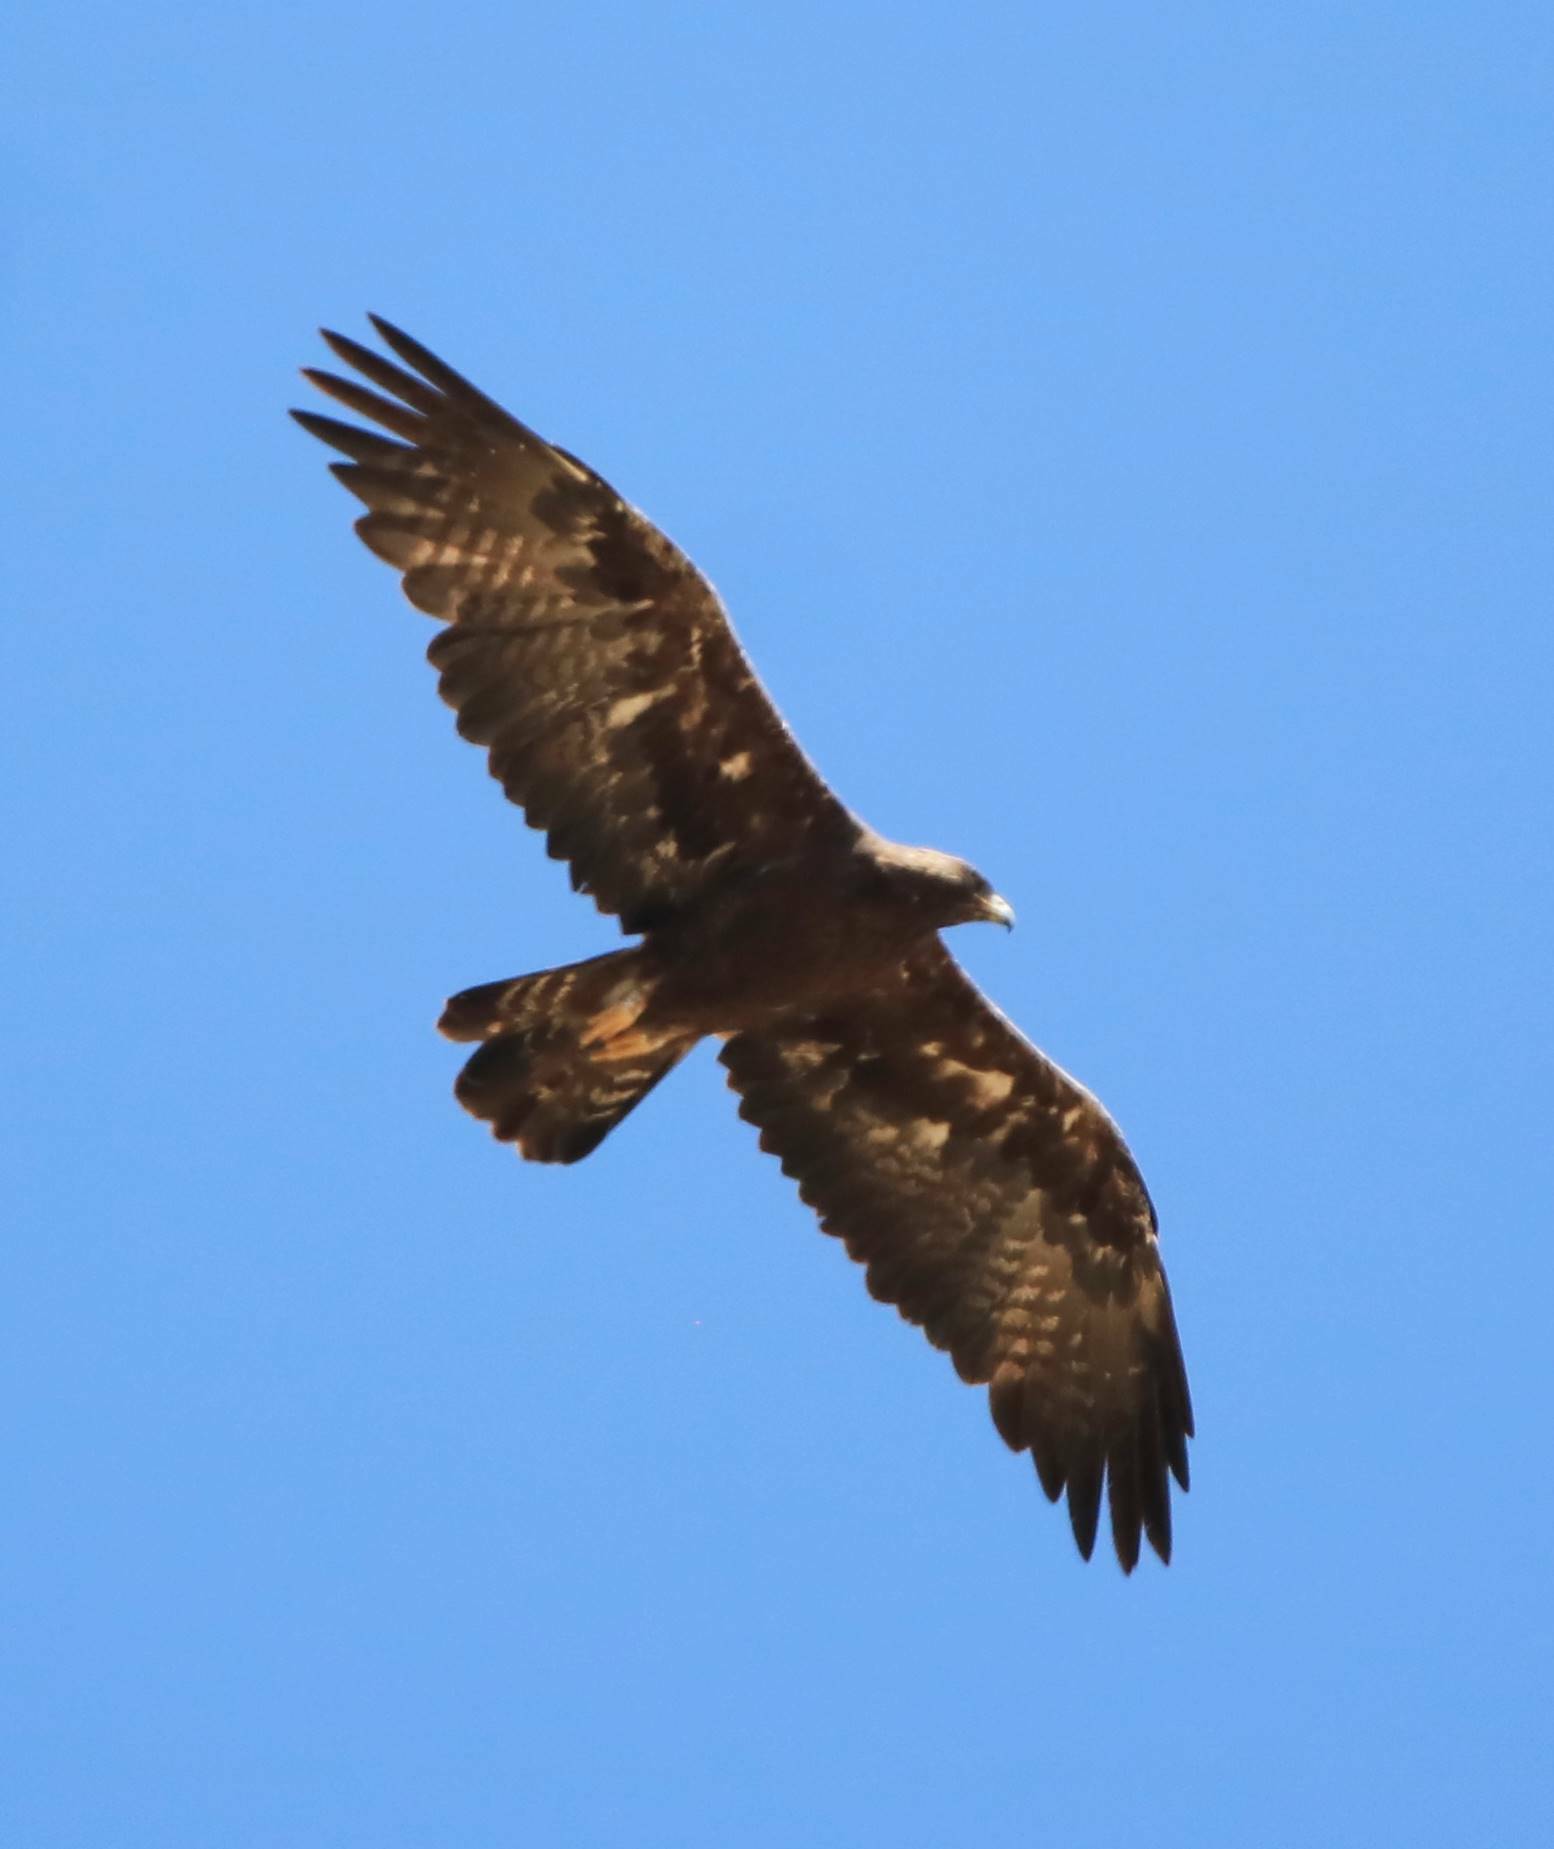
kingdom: Animalia
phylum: Chordata
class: Aves
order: Accipitriformes
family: Accipitridae
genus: Aquila
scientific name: Aquila chrysaetos
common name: Golden eagle
